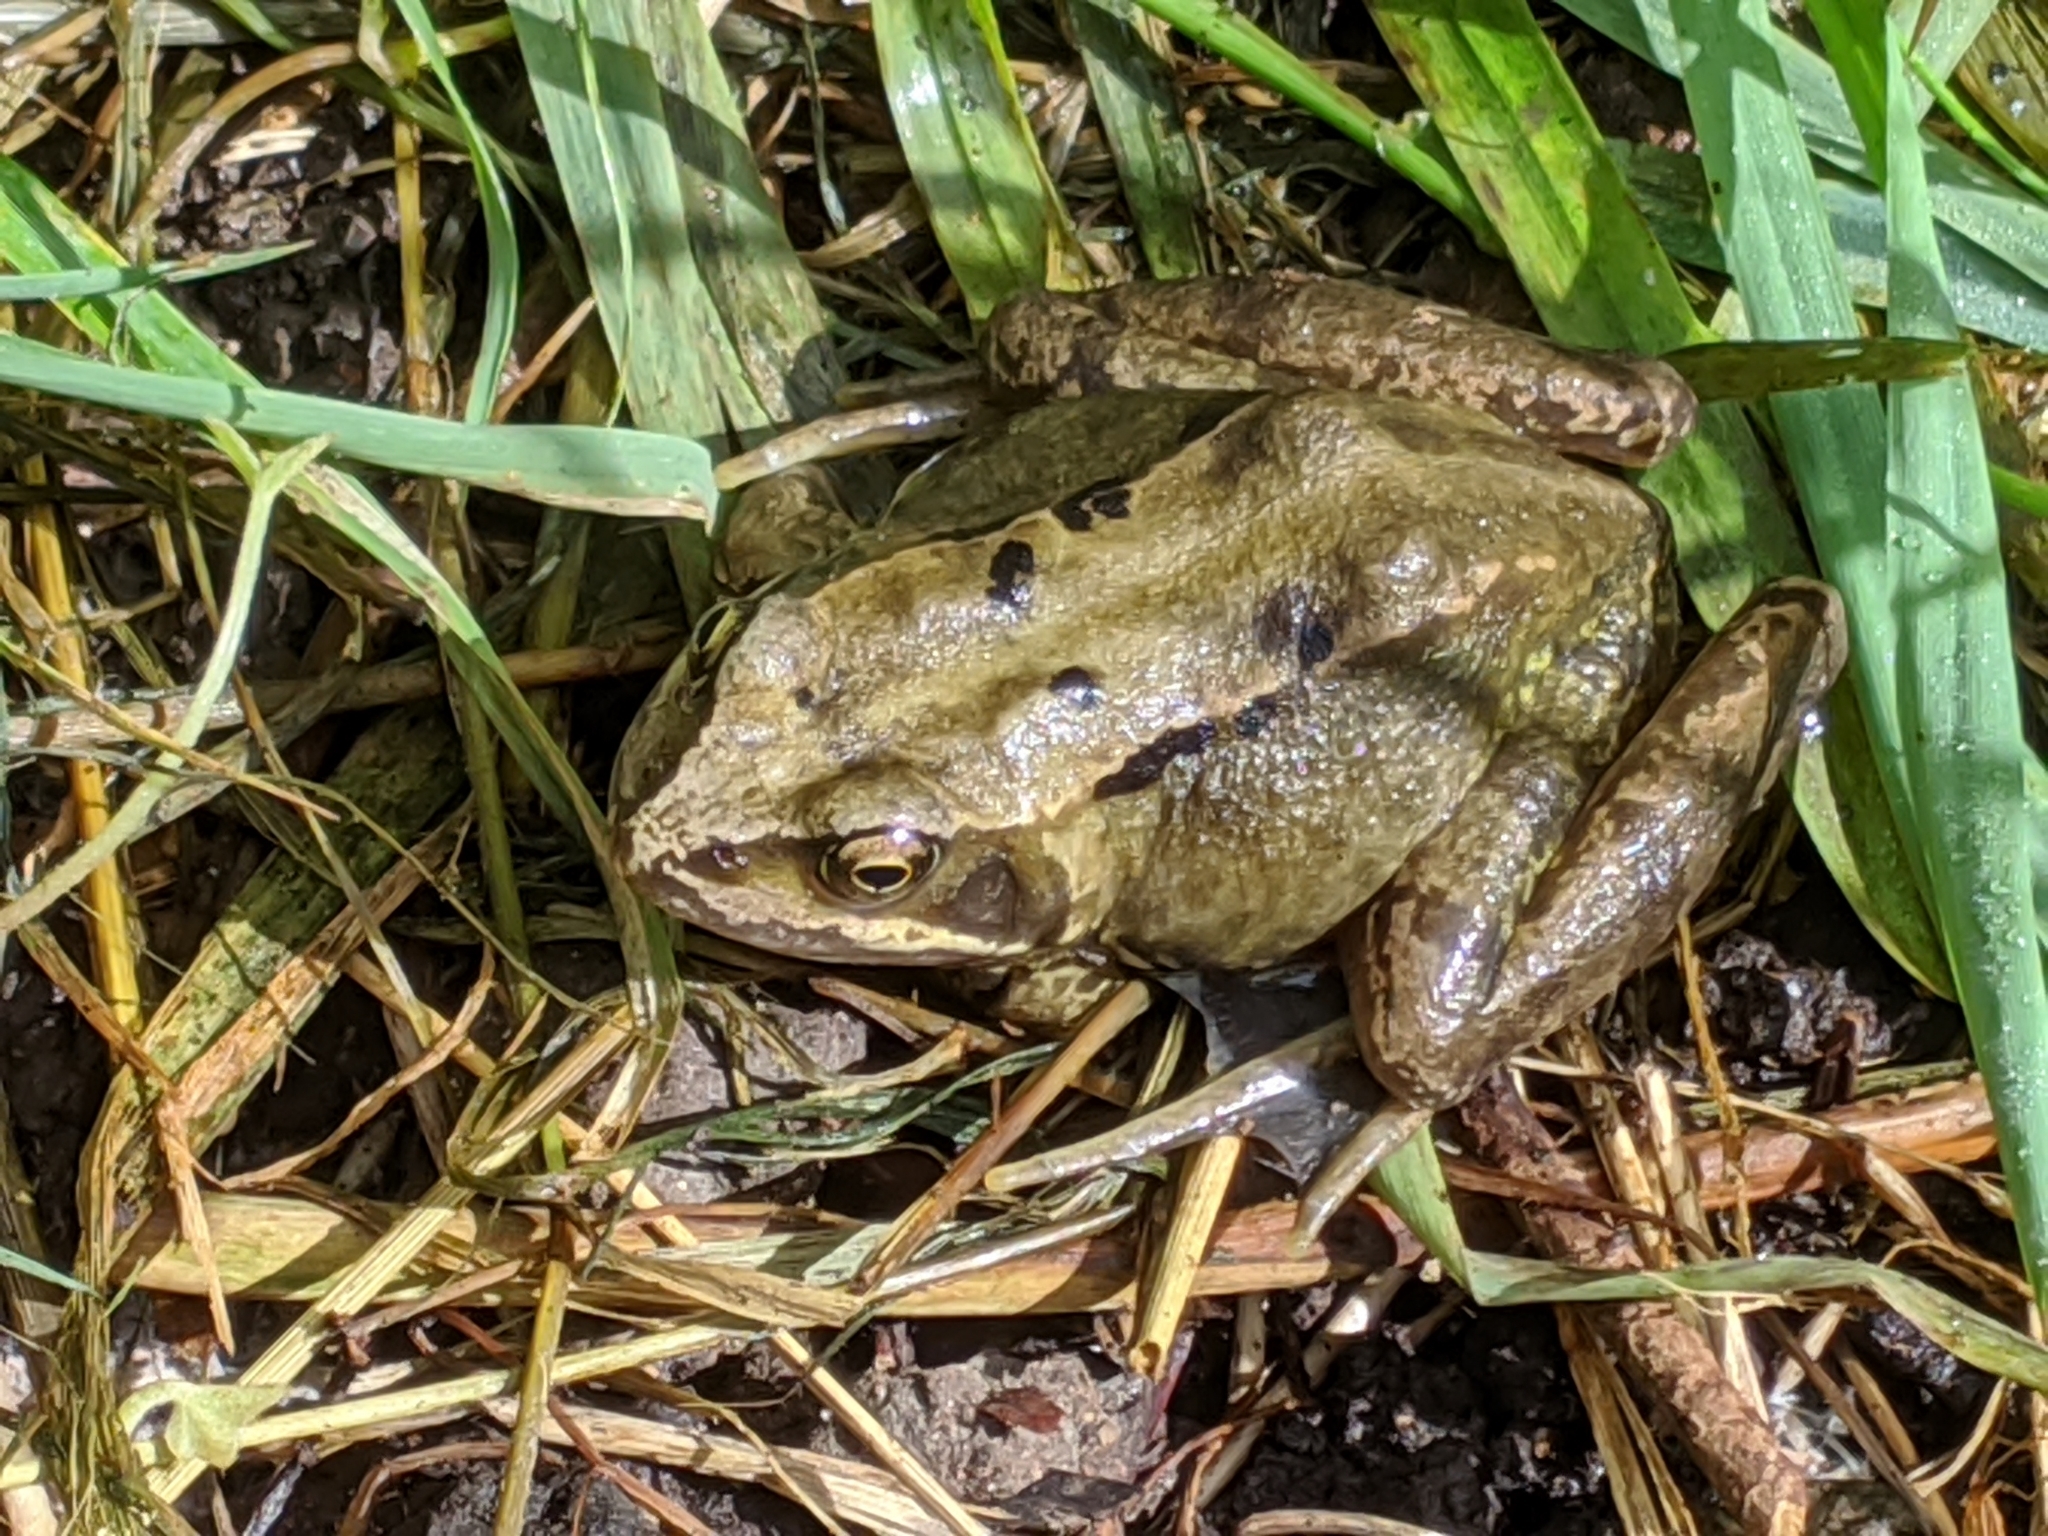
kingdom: Animalia
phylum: Chordata
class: Amphibia
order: Anura
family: Ranidae
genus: Rana
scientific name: Rana temporaria
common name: Common frog
